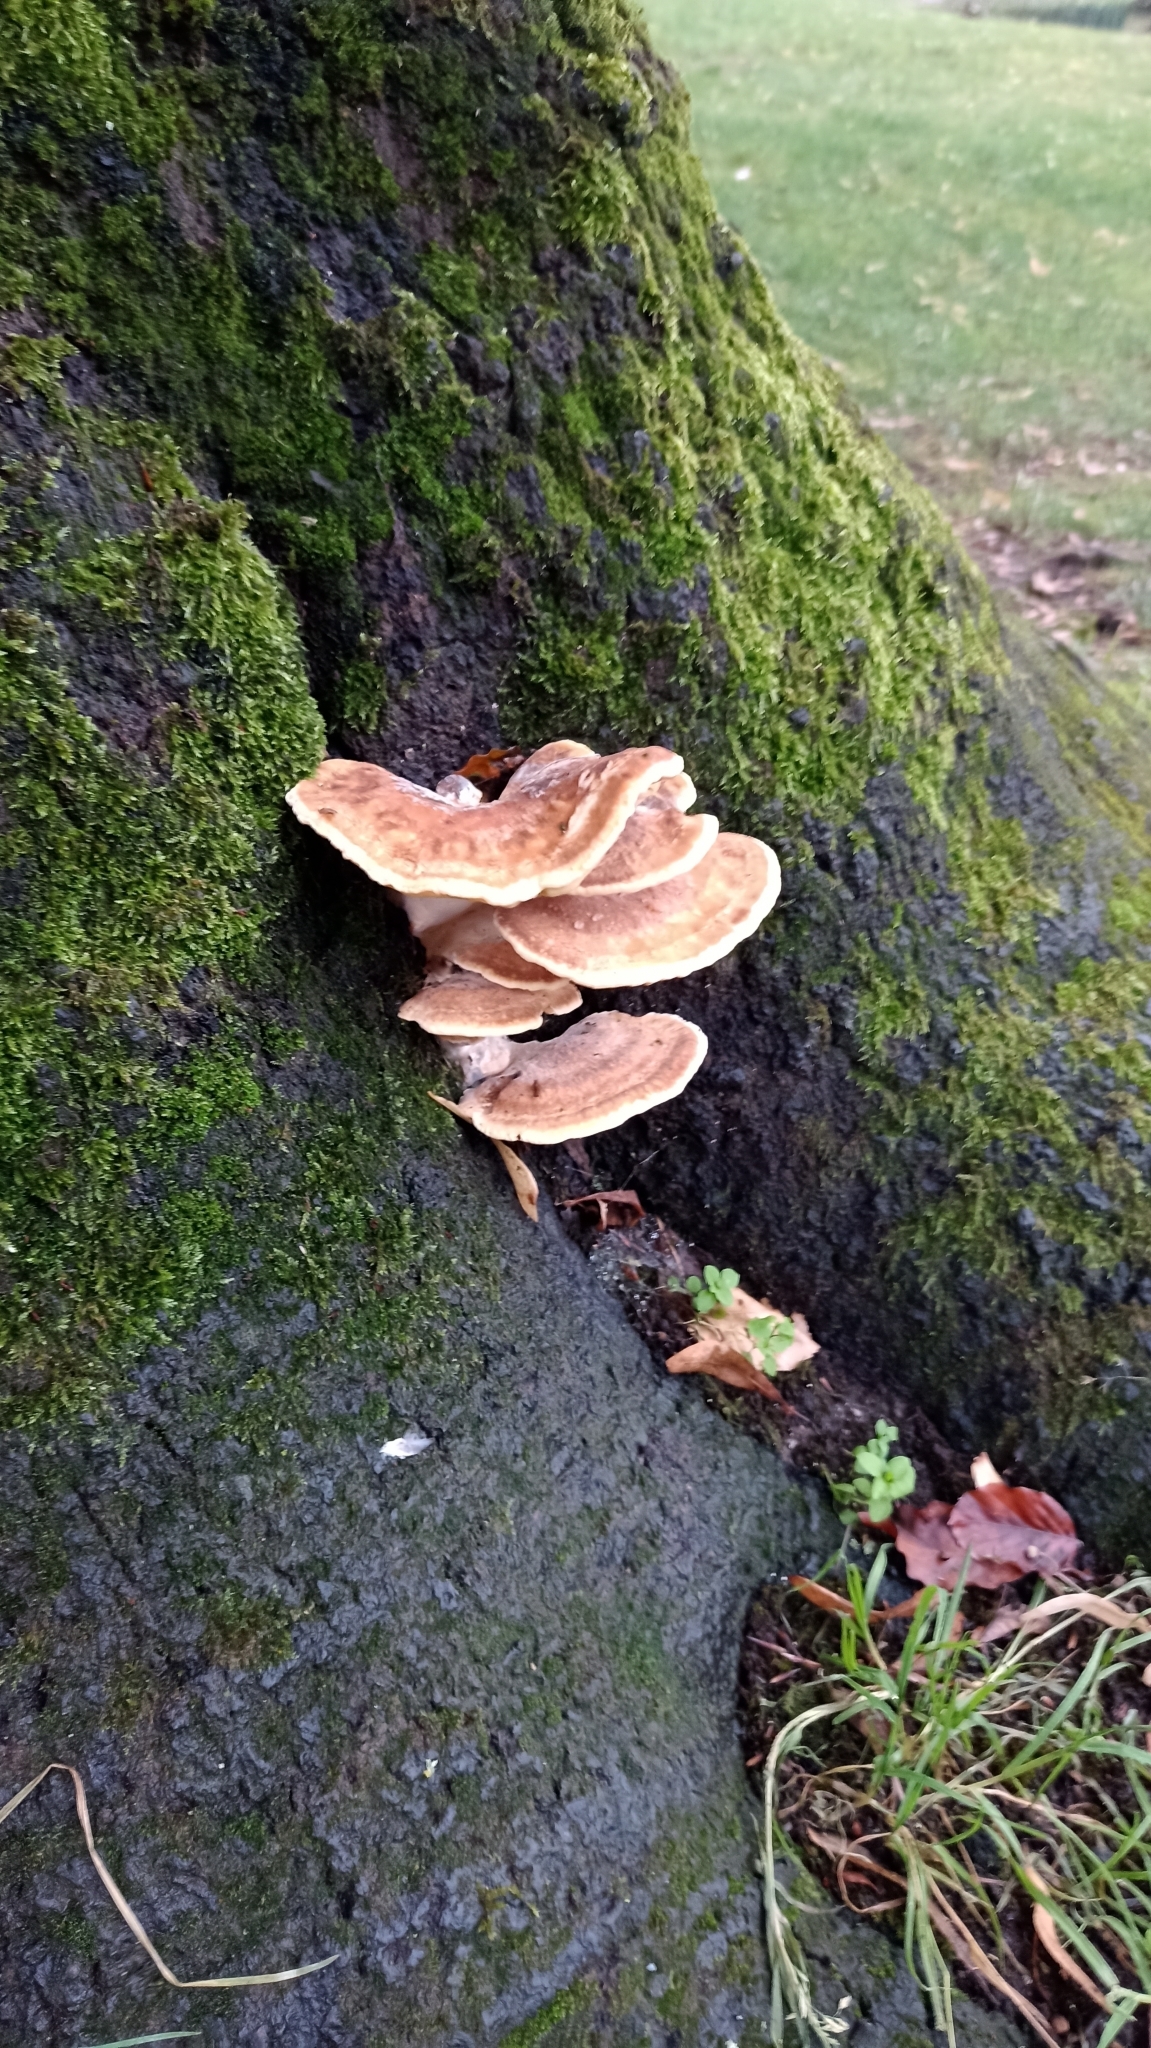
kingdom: Fungi
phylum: Basidiomycota
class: Agaricomycetes
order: Polyporales
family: Meripilaceae
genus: Meripilus
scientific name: Meripilus giganteus
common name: Giant polypore
